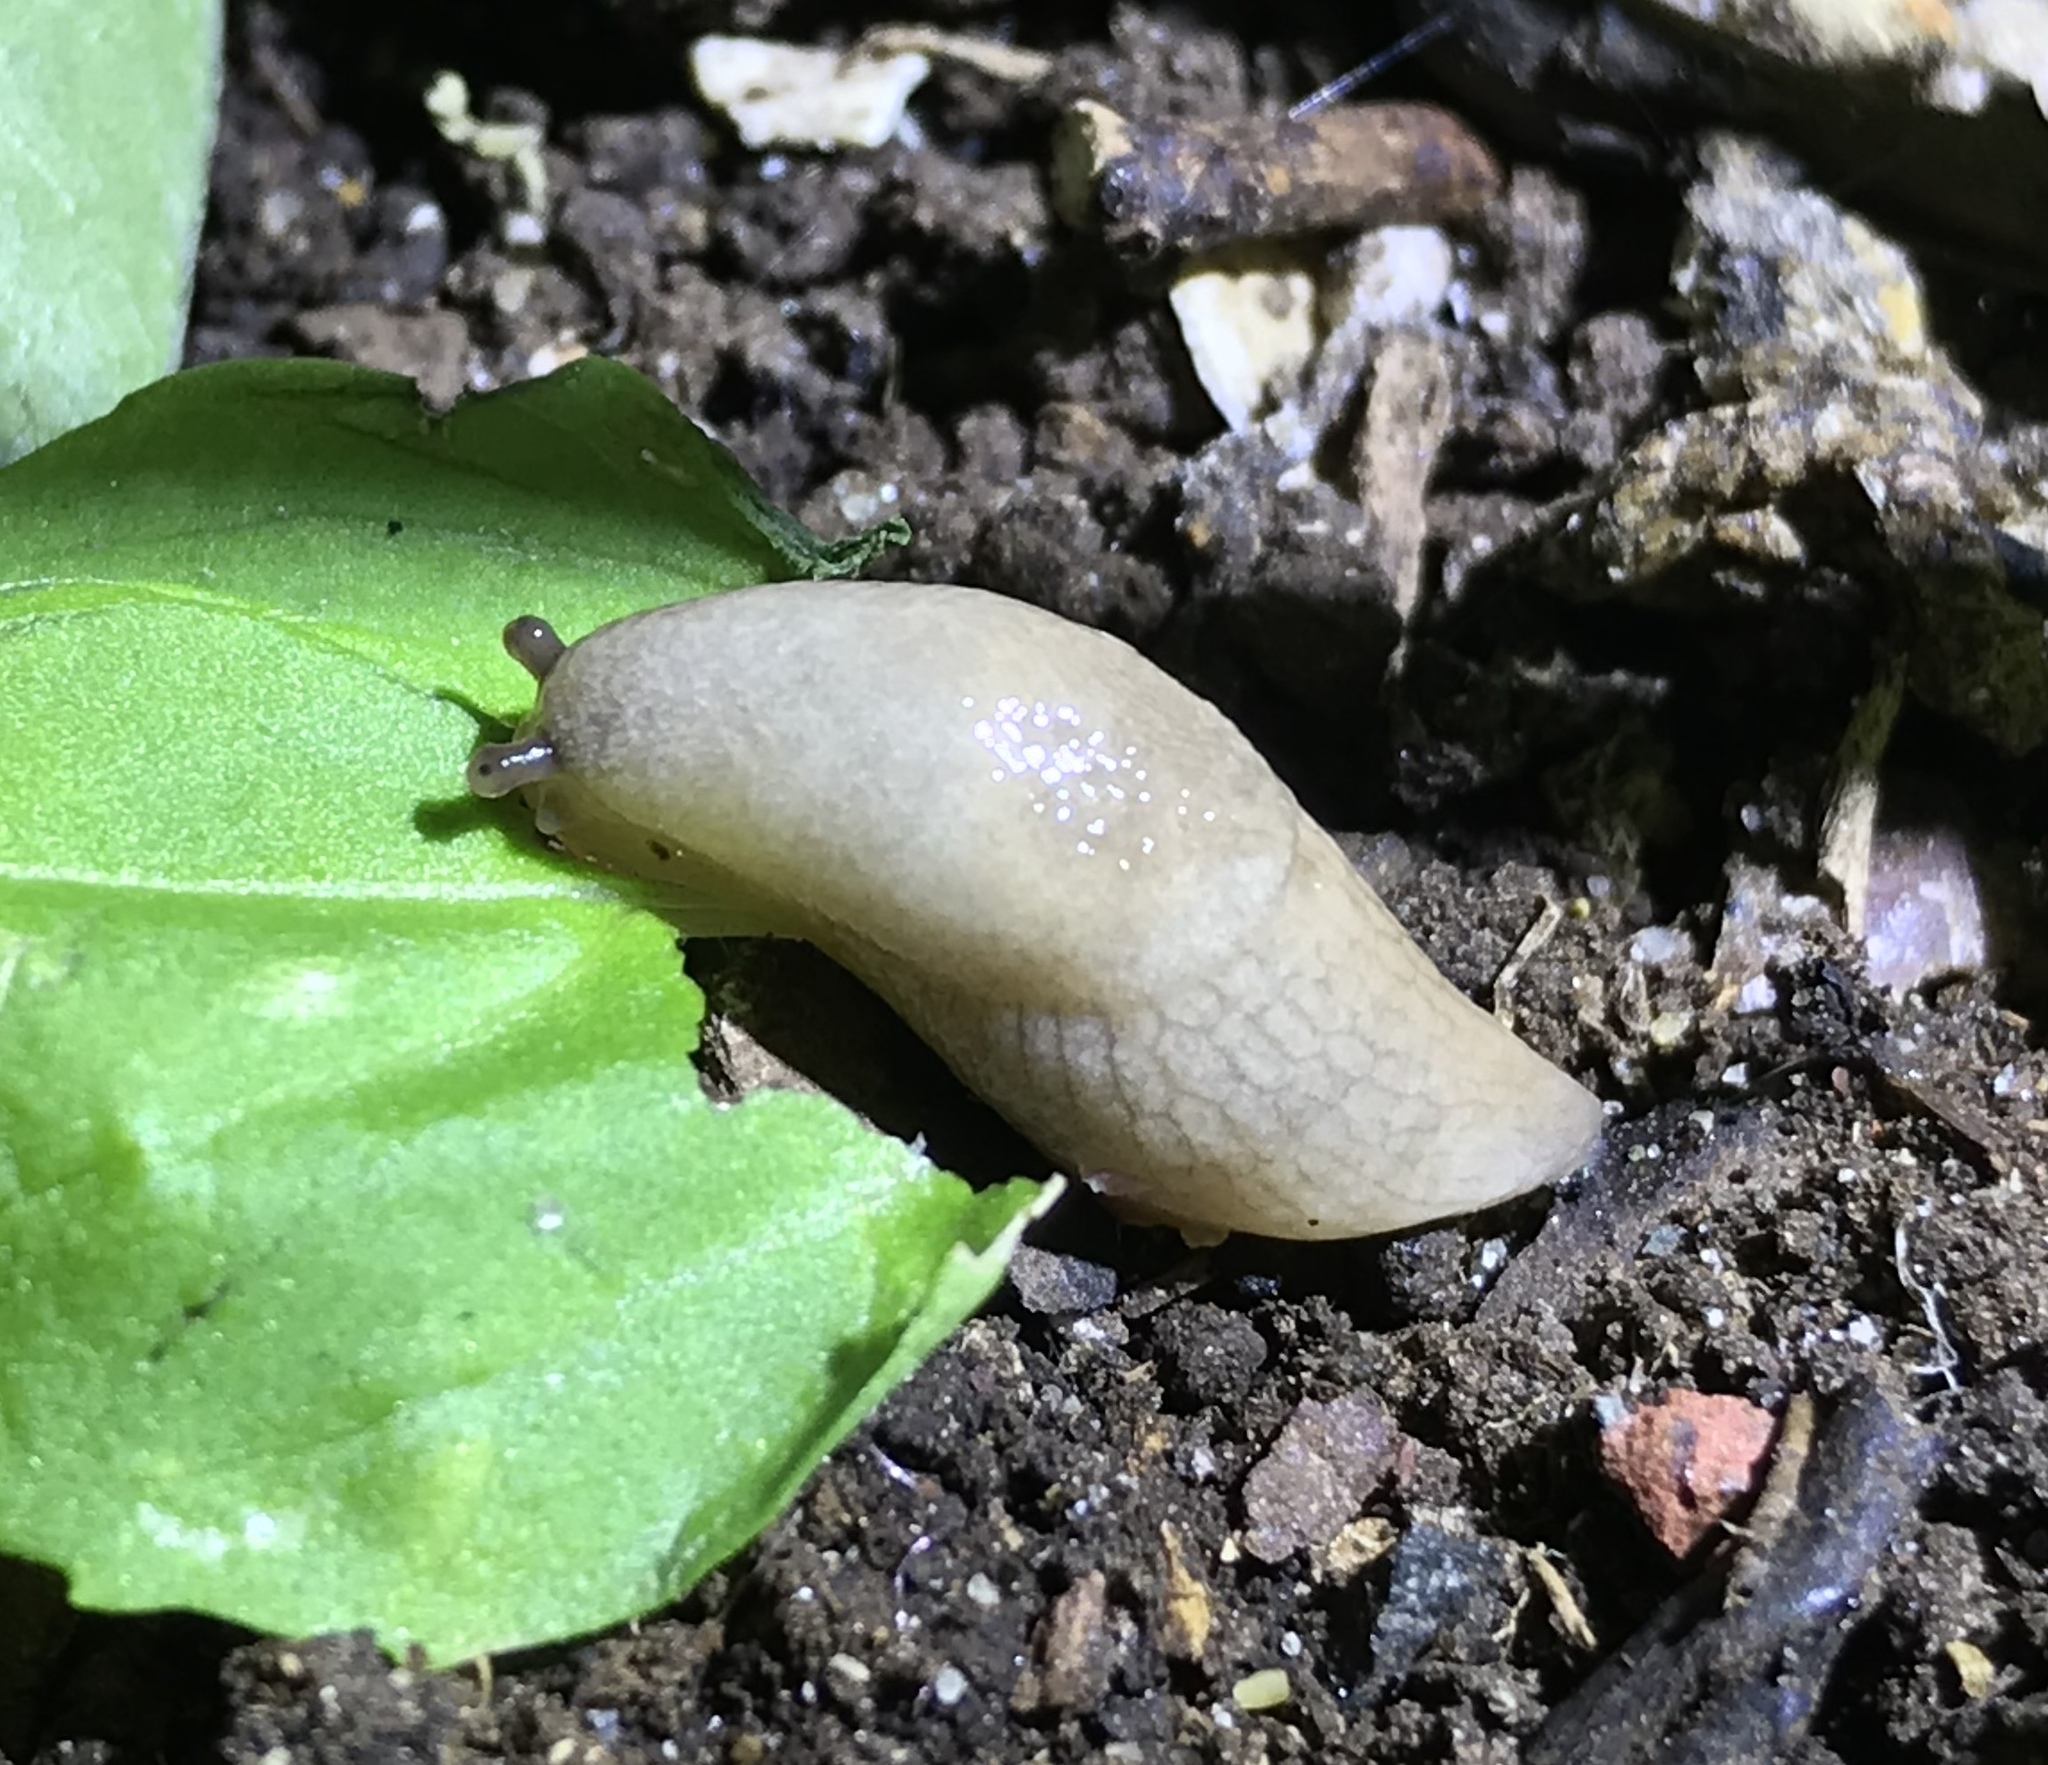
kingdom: Animalia
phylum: Mollusca
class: Gastropoda
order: Stylommatophora
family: Agriolimacidae
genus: Deroceras
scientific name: Deroceras reticulatum
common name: Gray field slug
